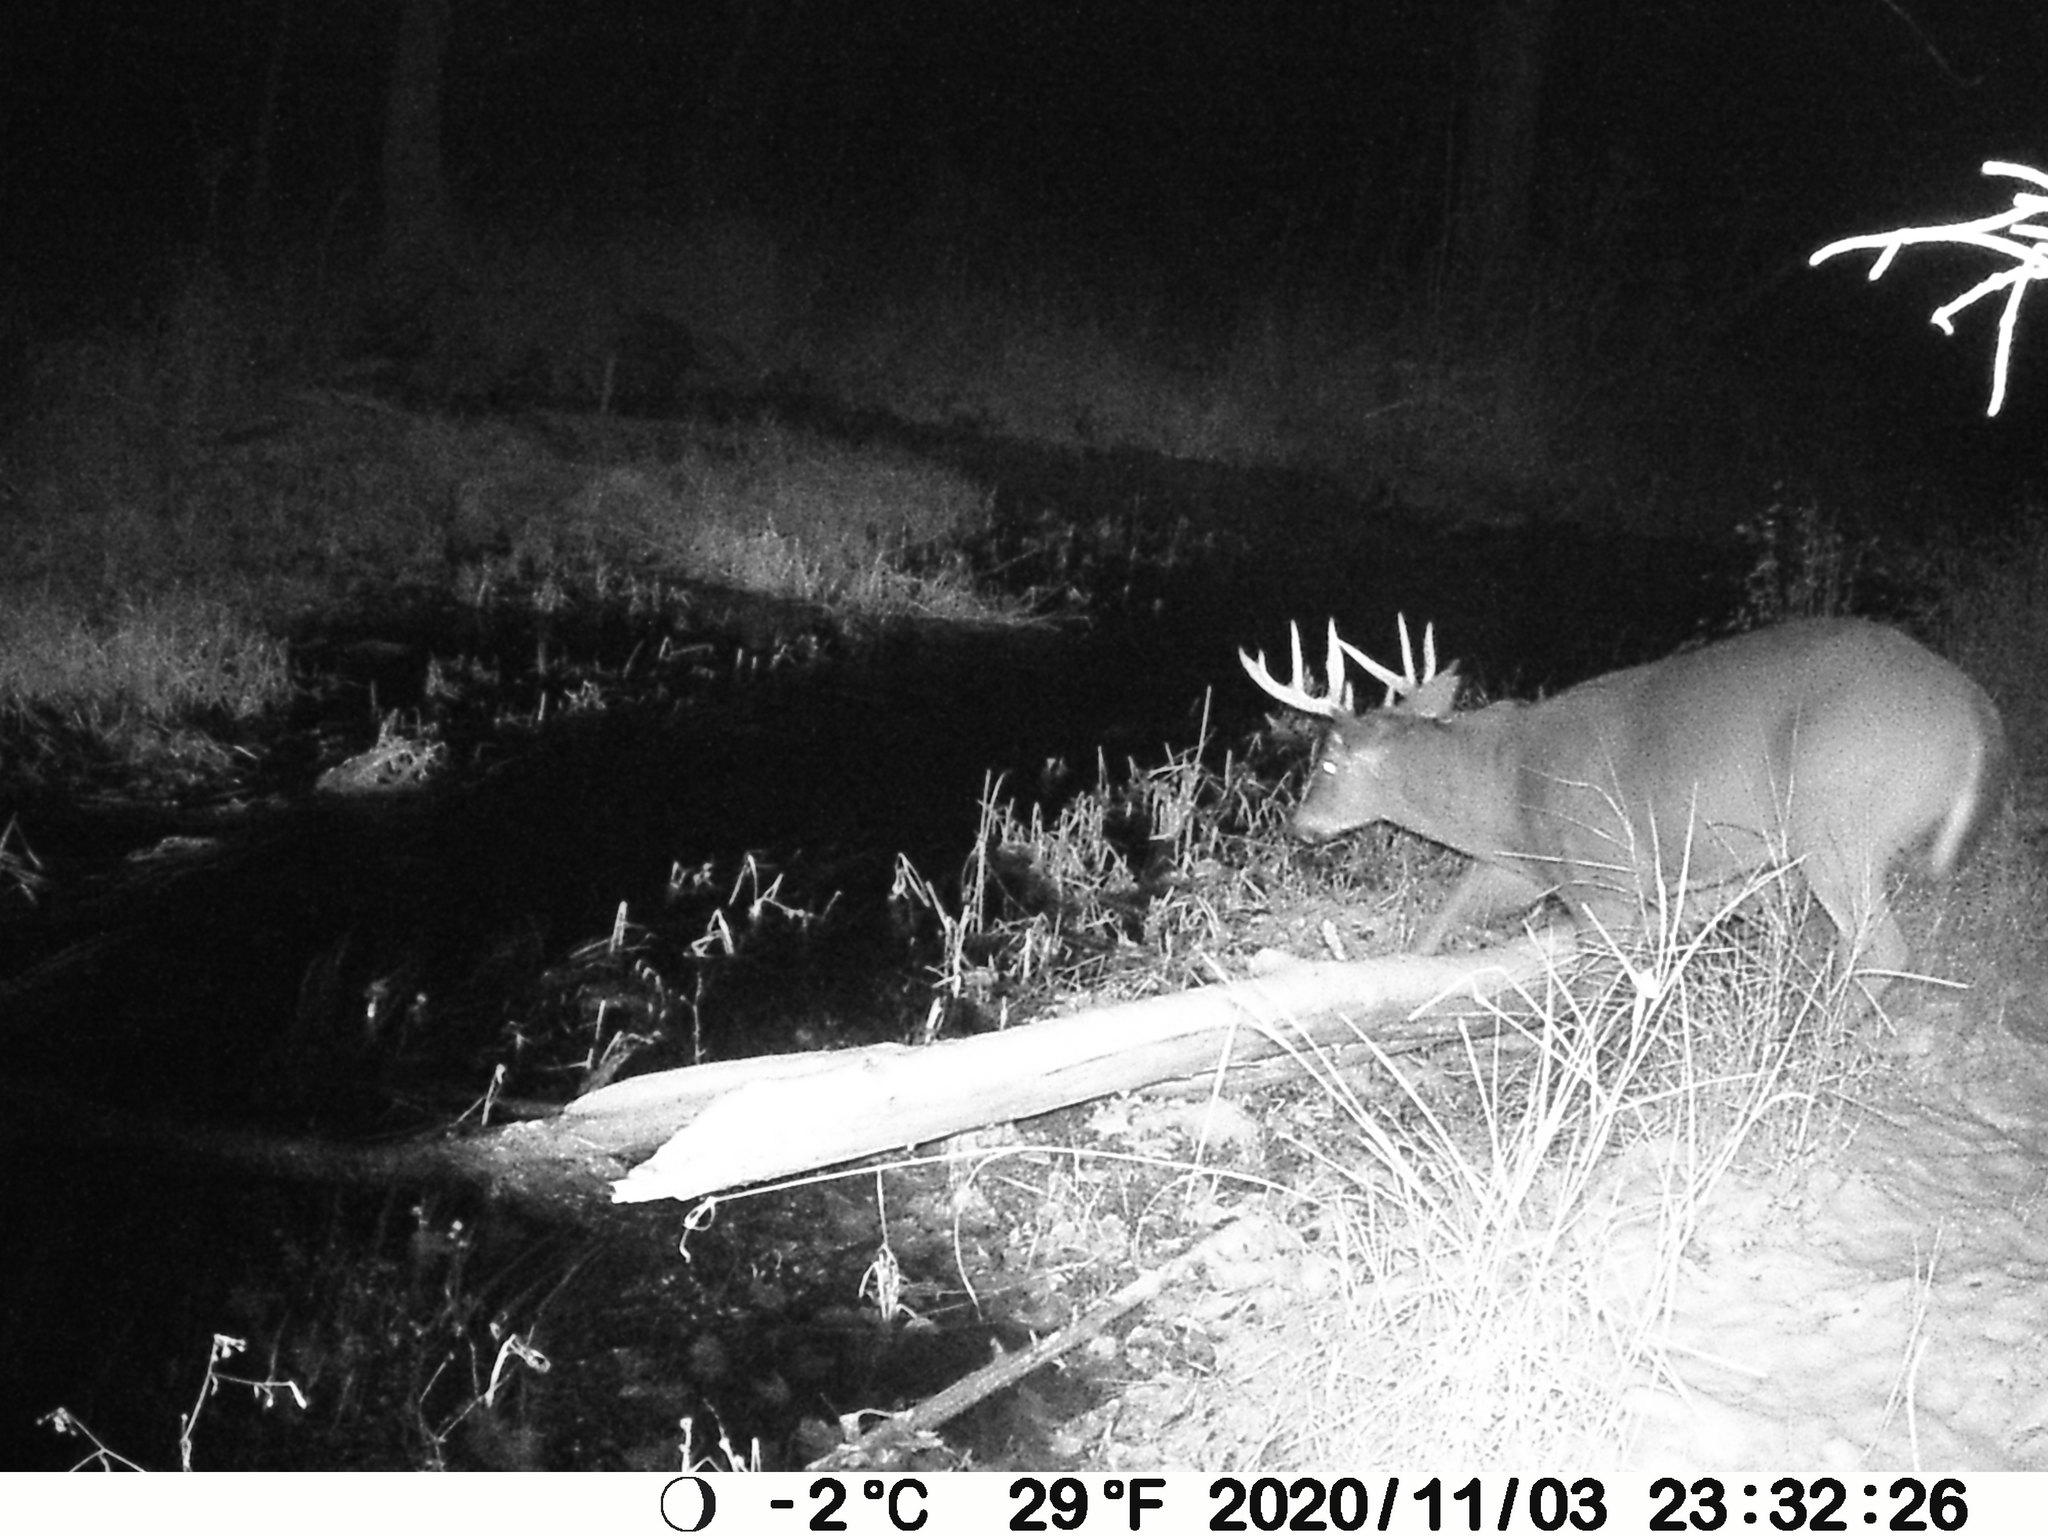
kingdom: Animalia
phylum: Chordata
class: Mammalia
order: Artiodactyla
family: Cervidae
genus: Odocoileus
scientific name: Odocoileus virginianus
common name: White-tailed deer
